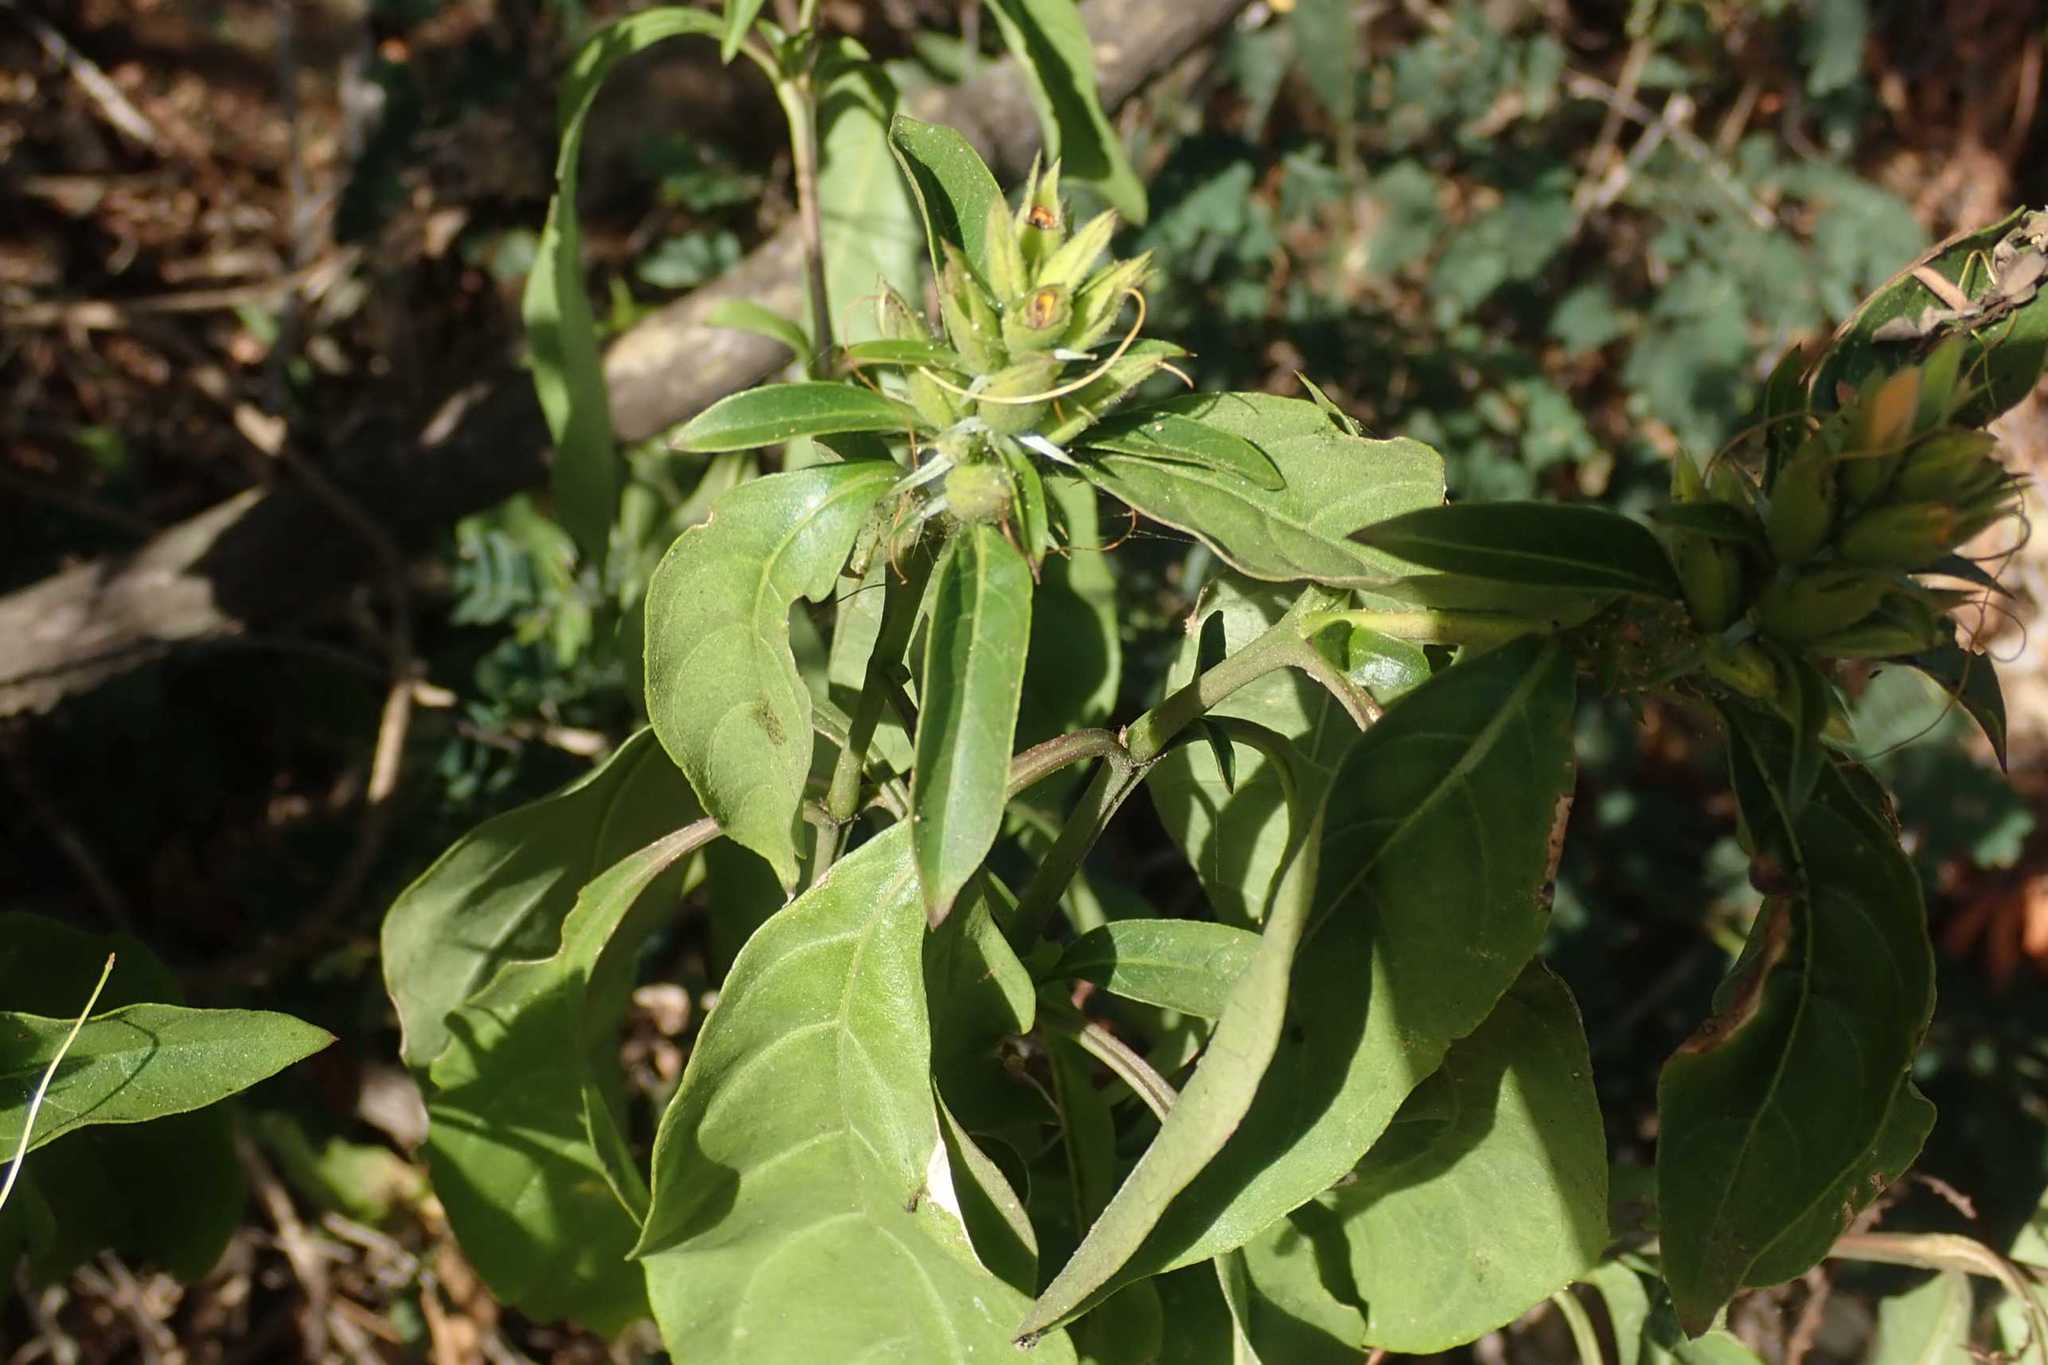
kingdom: Plantae
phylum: Tracheophyta
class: Magnoliopsida
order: Lamiales
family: Acanthaceae
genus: Barleria
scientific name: Barleria delagoensis
